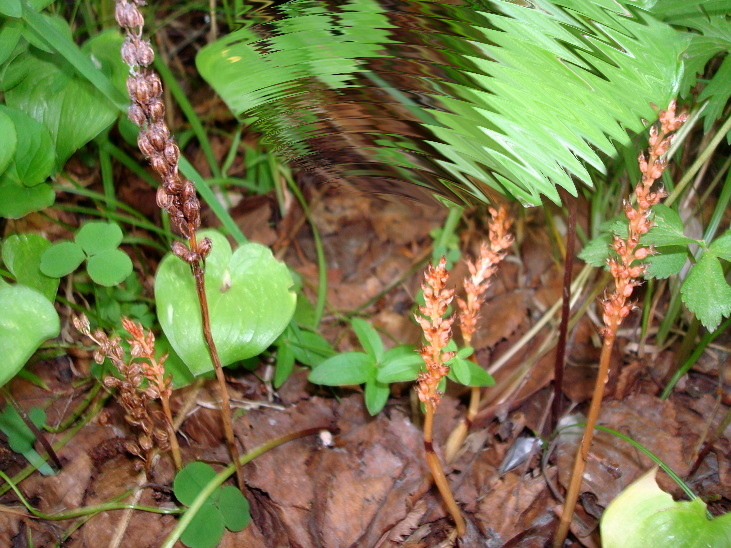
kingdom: Plantae
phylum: Tracheophyta
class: Liliopsida
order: Asparagales
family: Orchidaceae
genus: Neottia
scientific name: Neottia acuminata
